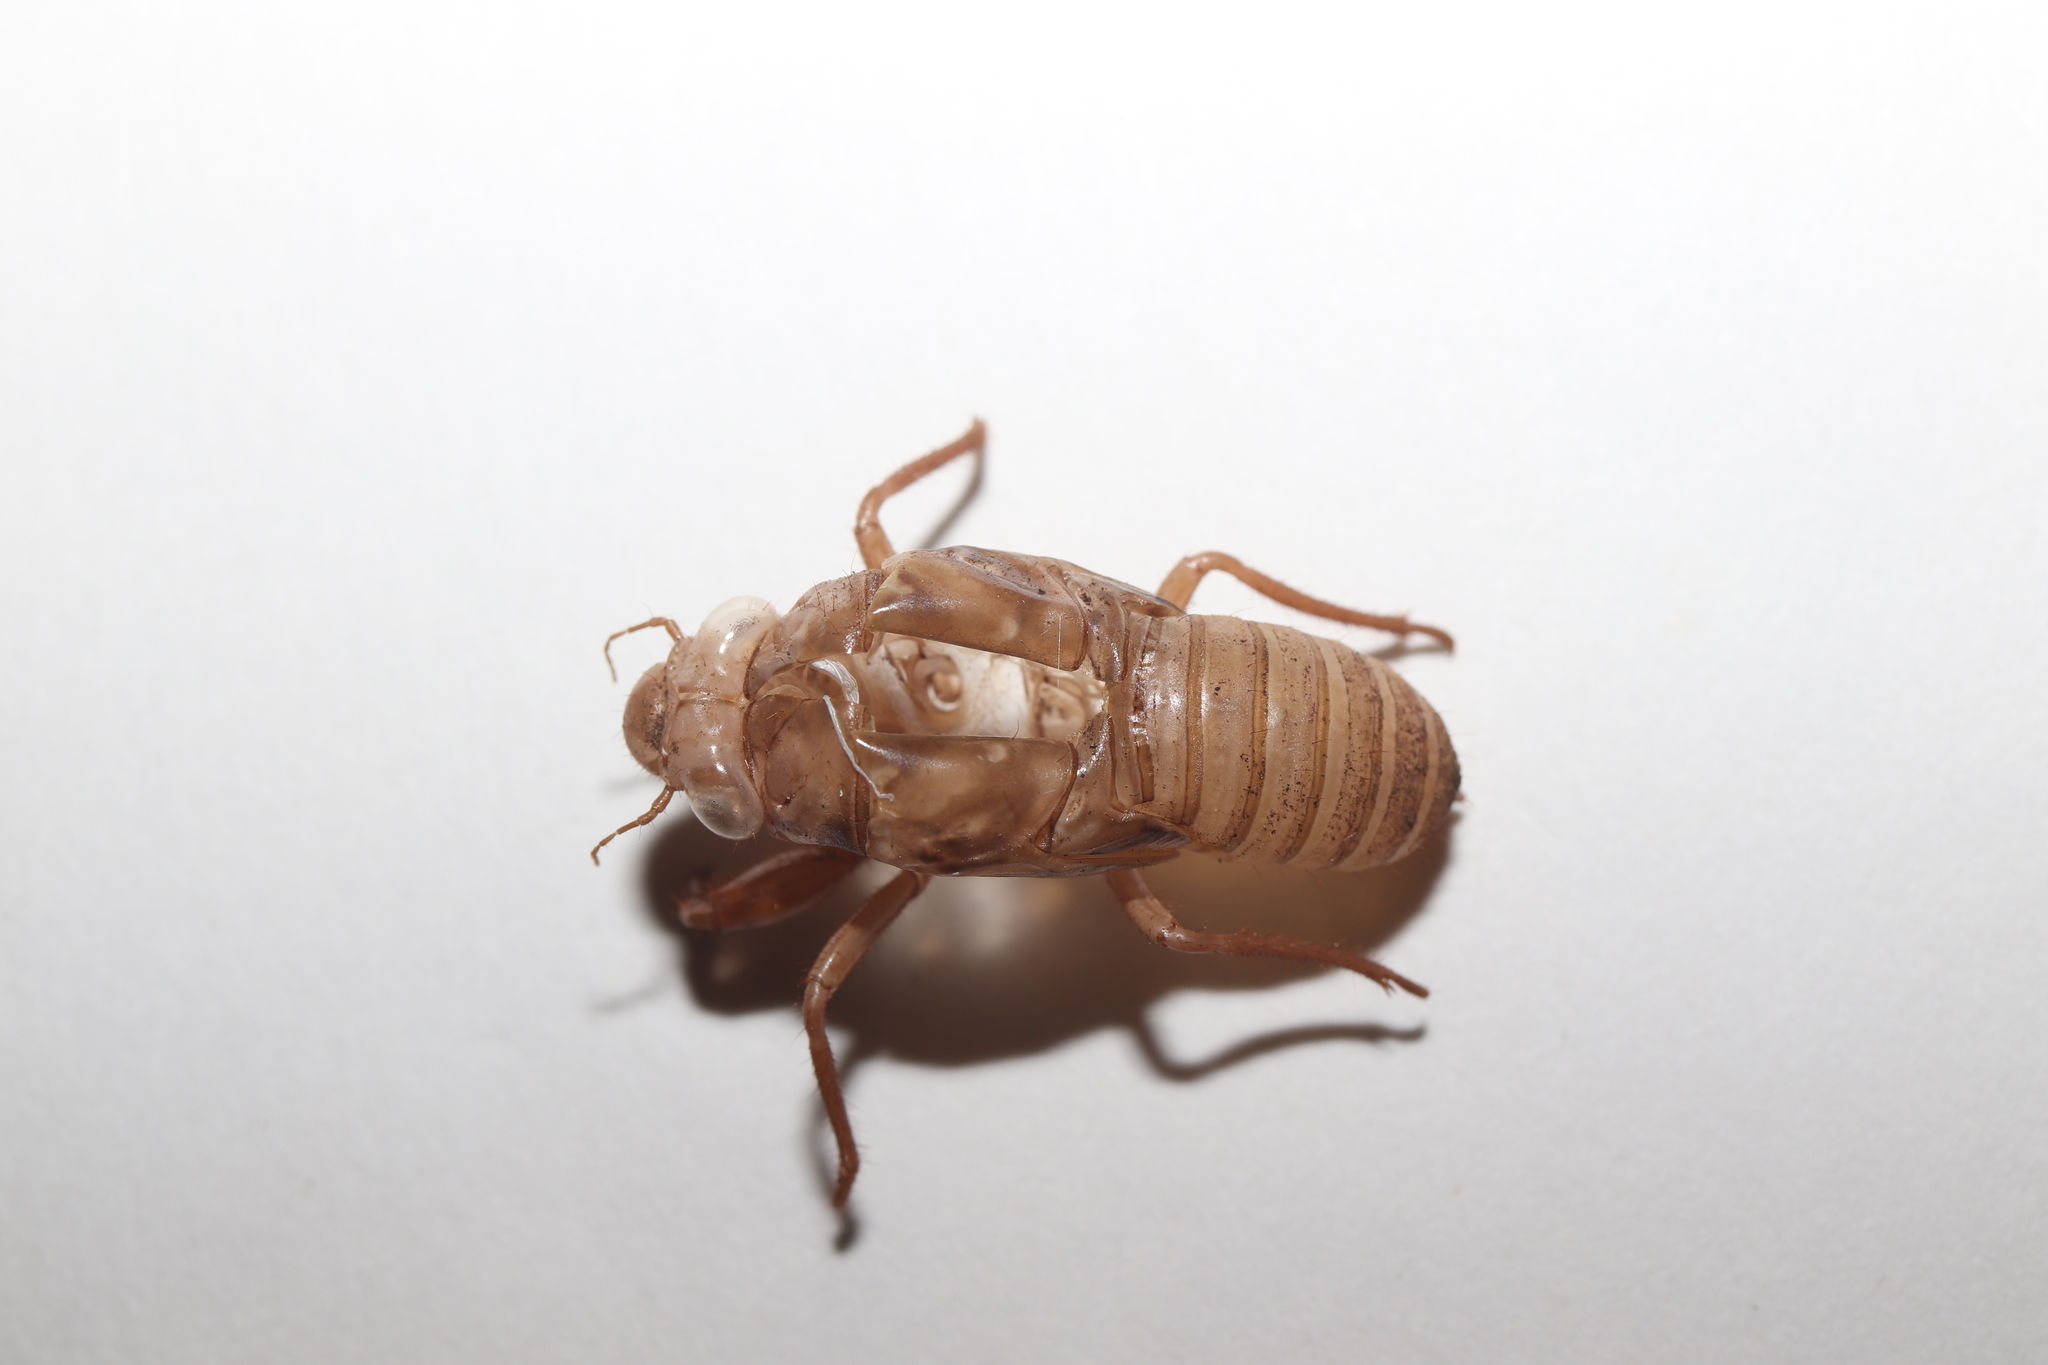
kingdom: Animalia
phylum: Arthropoda
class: Insecta
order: Hemiptera
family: Cicadidae
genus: Meimuna
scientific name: Meimuna opalifera
